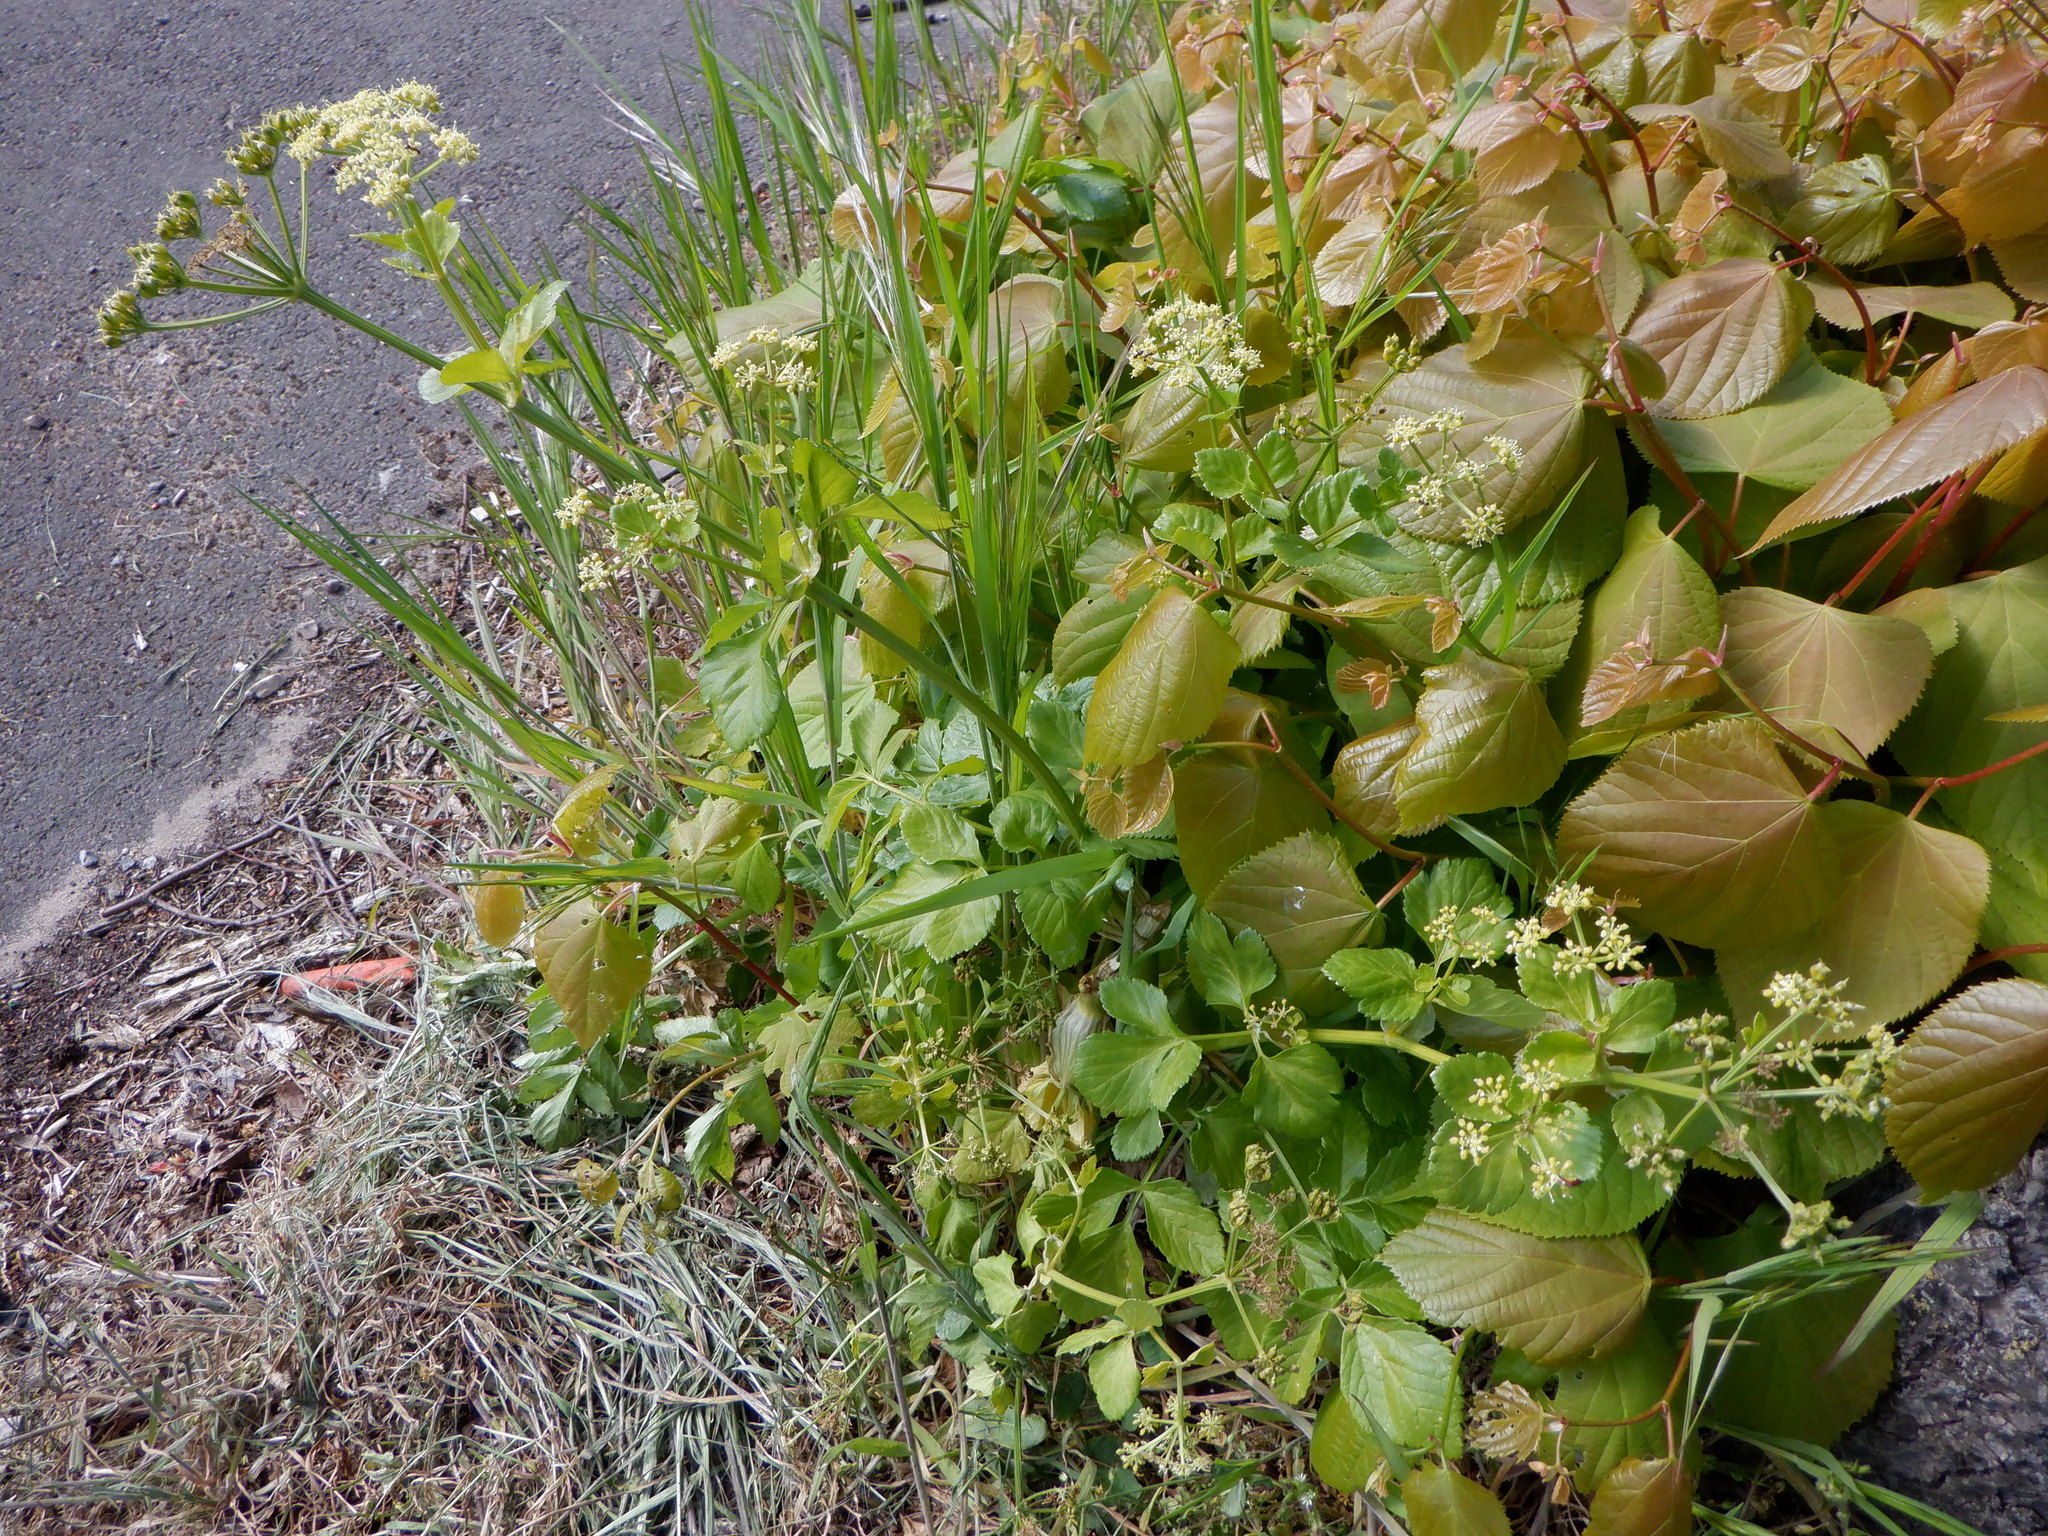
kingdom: Plantae
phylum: Tracheophyta
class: Magnoliopsida
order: Apiales
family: Apiaceae
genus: Smyrnium
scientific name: Smyrnium olusatrum
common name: Alexanders
